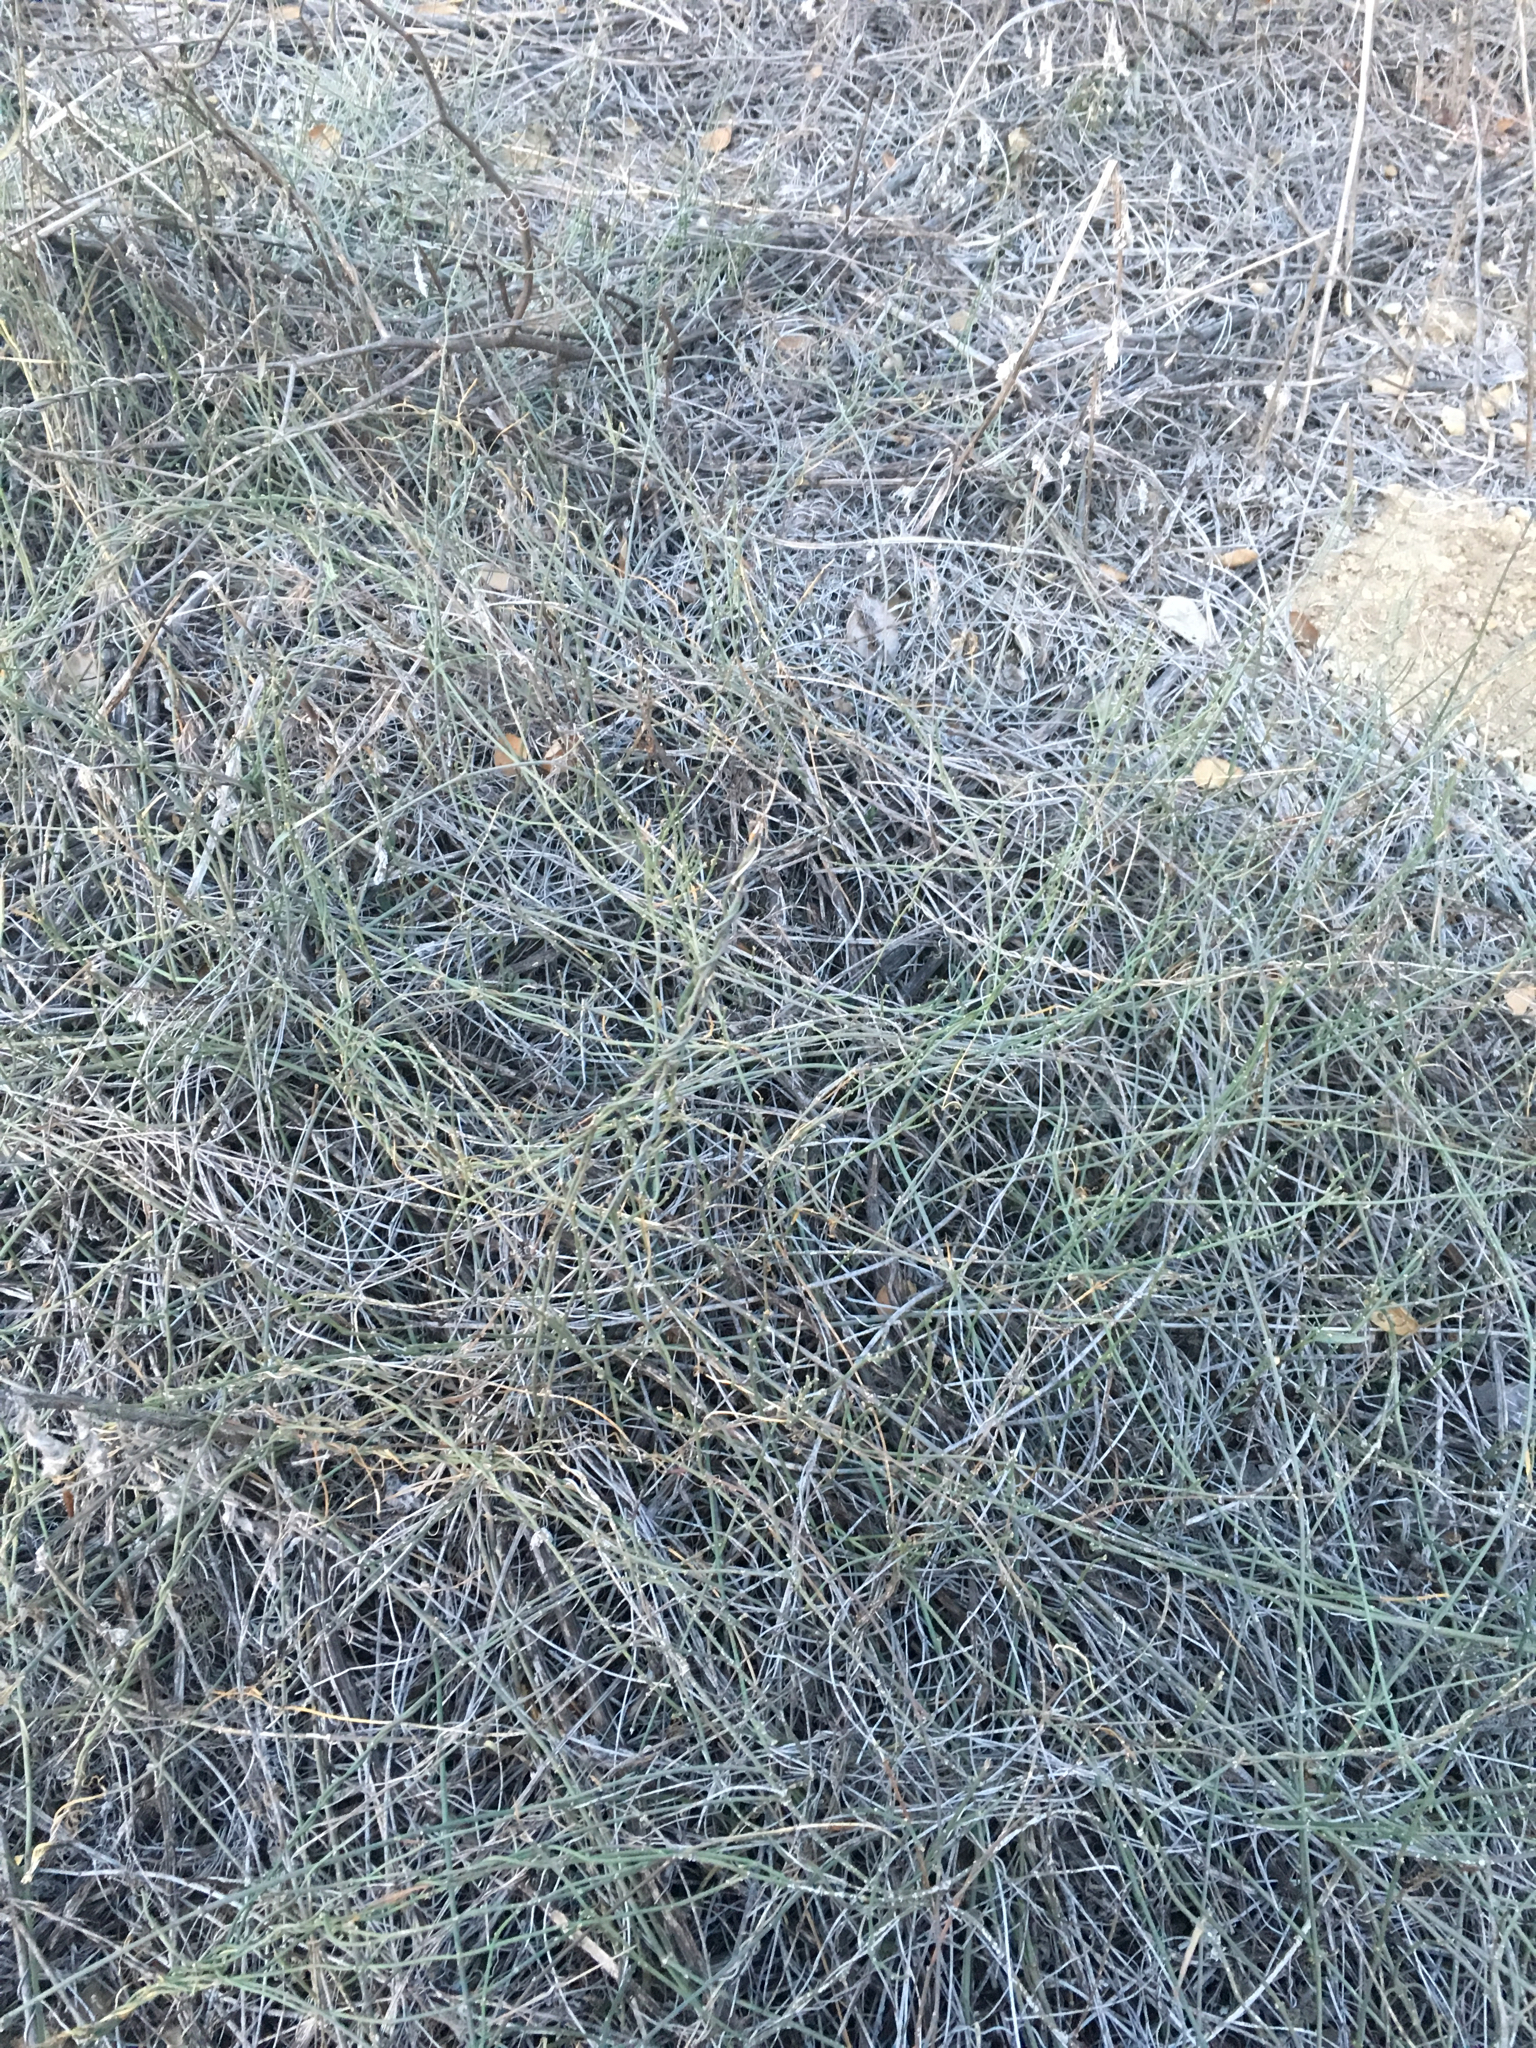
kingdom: Plantae
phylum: Tracheophyta
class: Magnoliopsida
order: Gentianales
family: Apocynaceae
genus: Funastrum
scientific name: Funastrum heterophyllum
